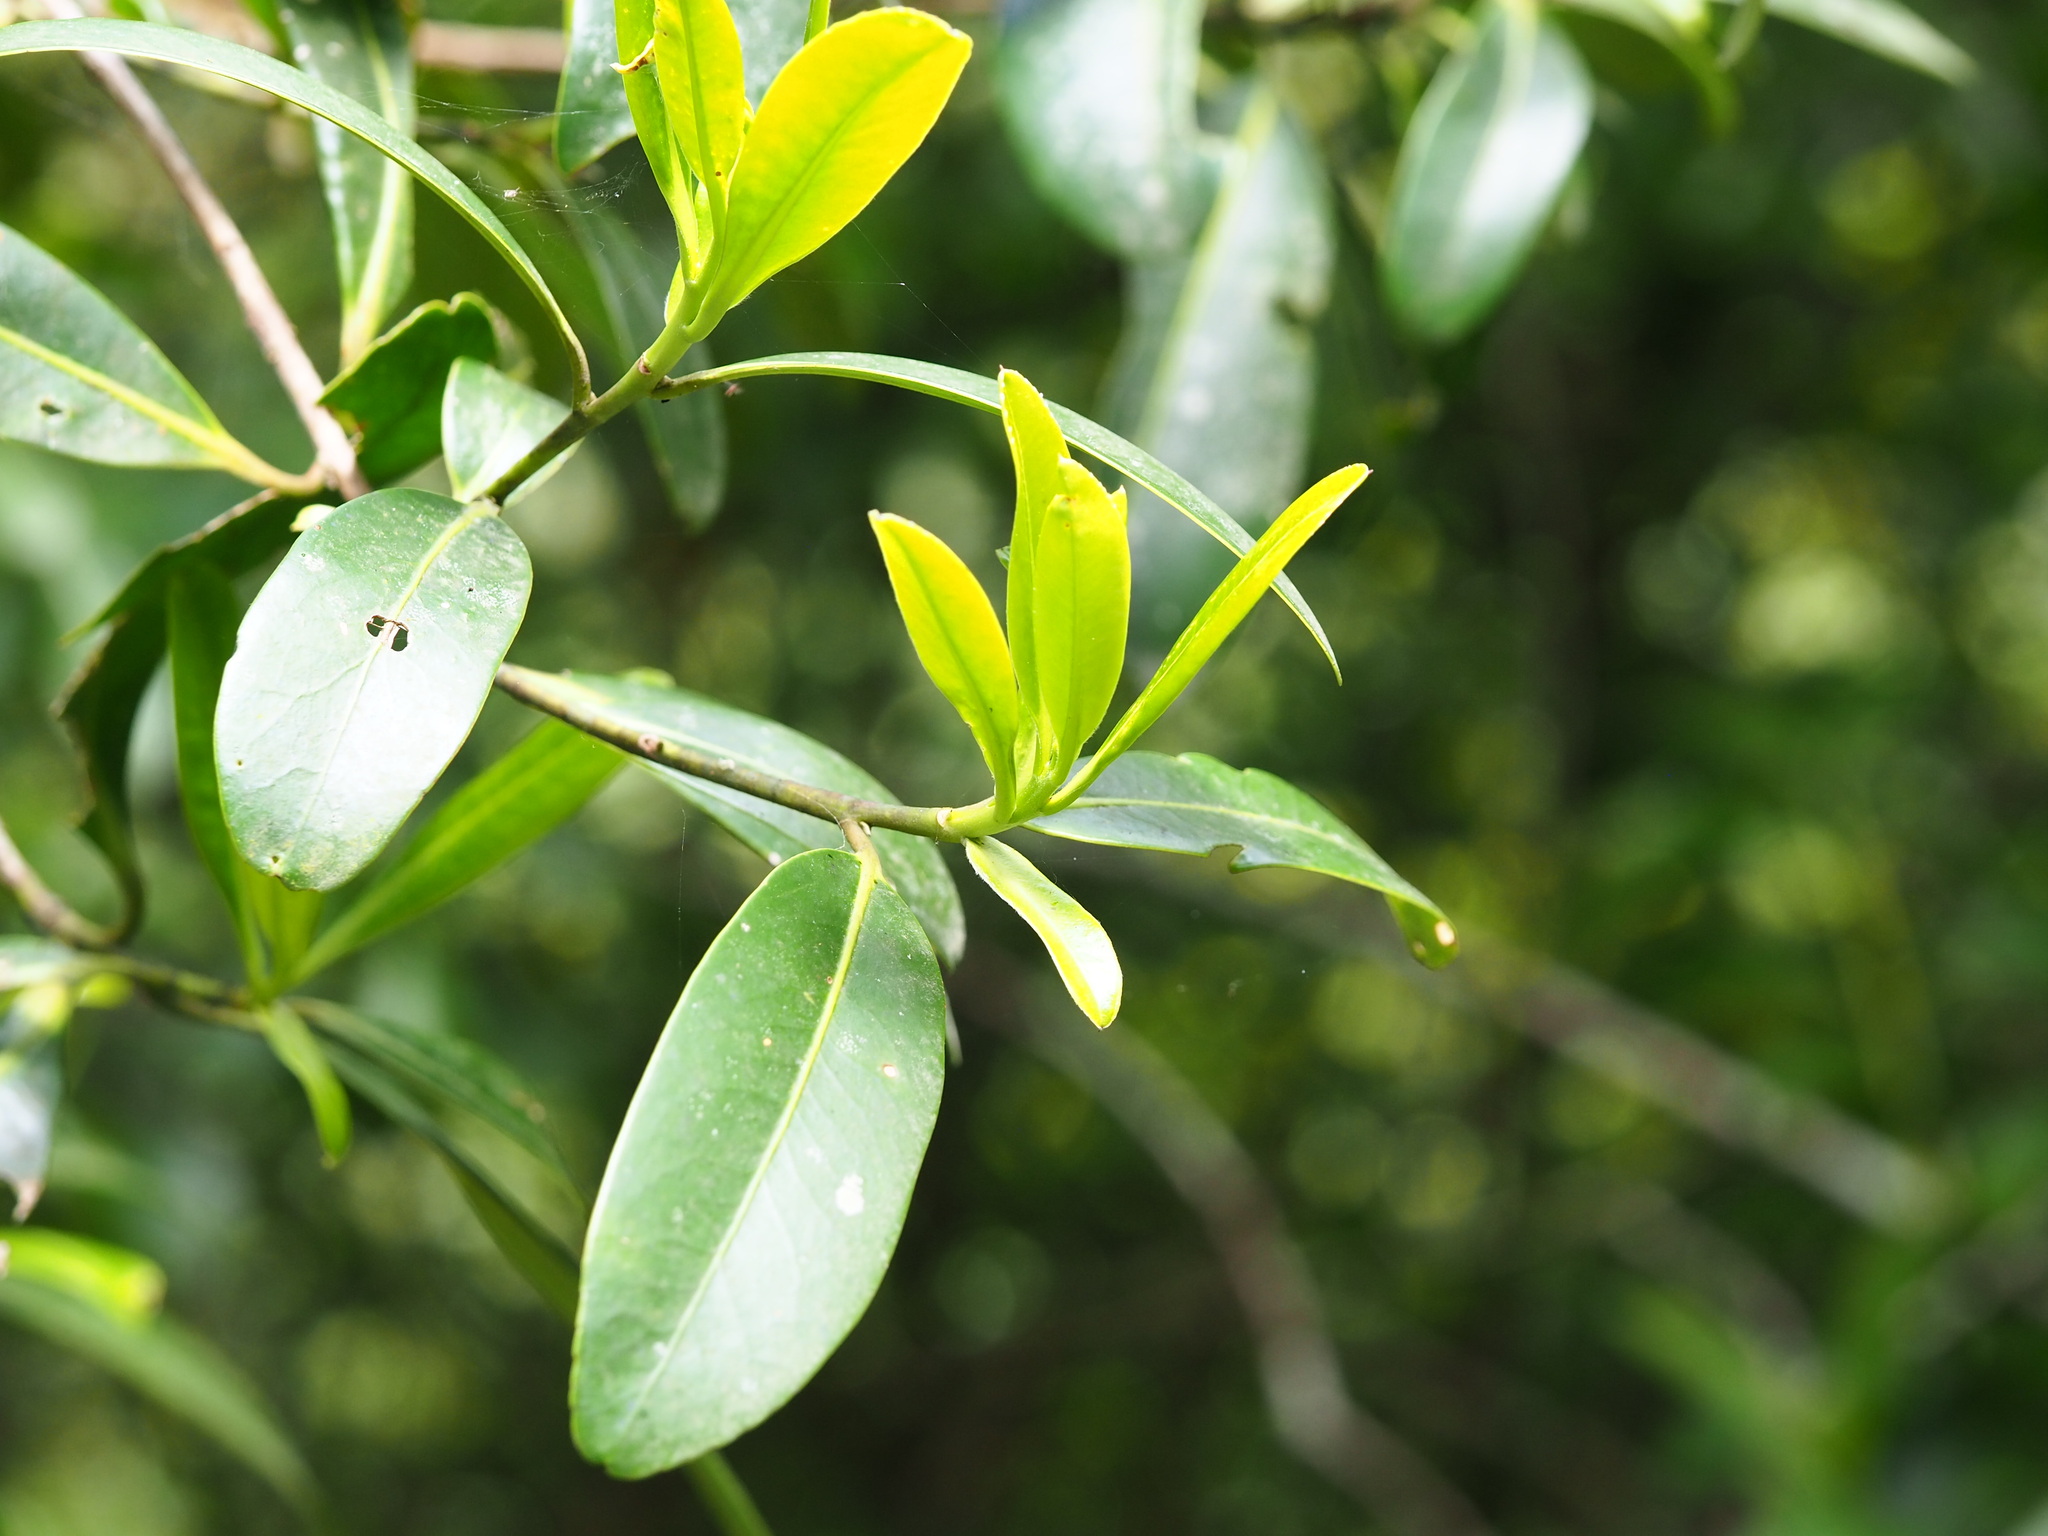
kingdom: Plantae
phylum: Tracheophyta
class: Magnoliopsida
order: Ericales
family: Theaceae
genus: Polyspora
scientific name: Polyspora axillaris
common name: Fried egg tree
